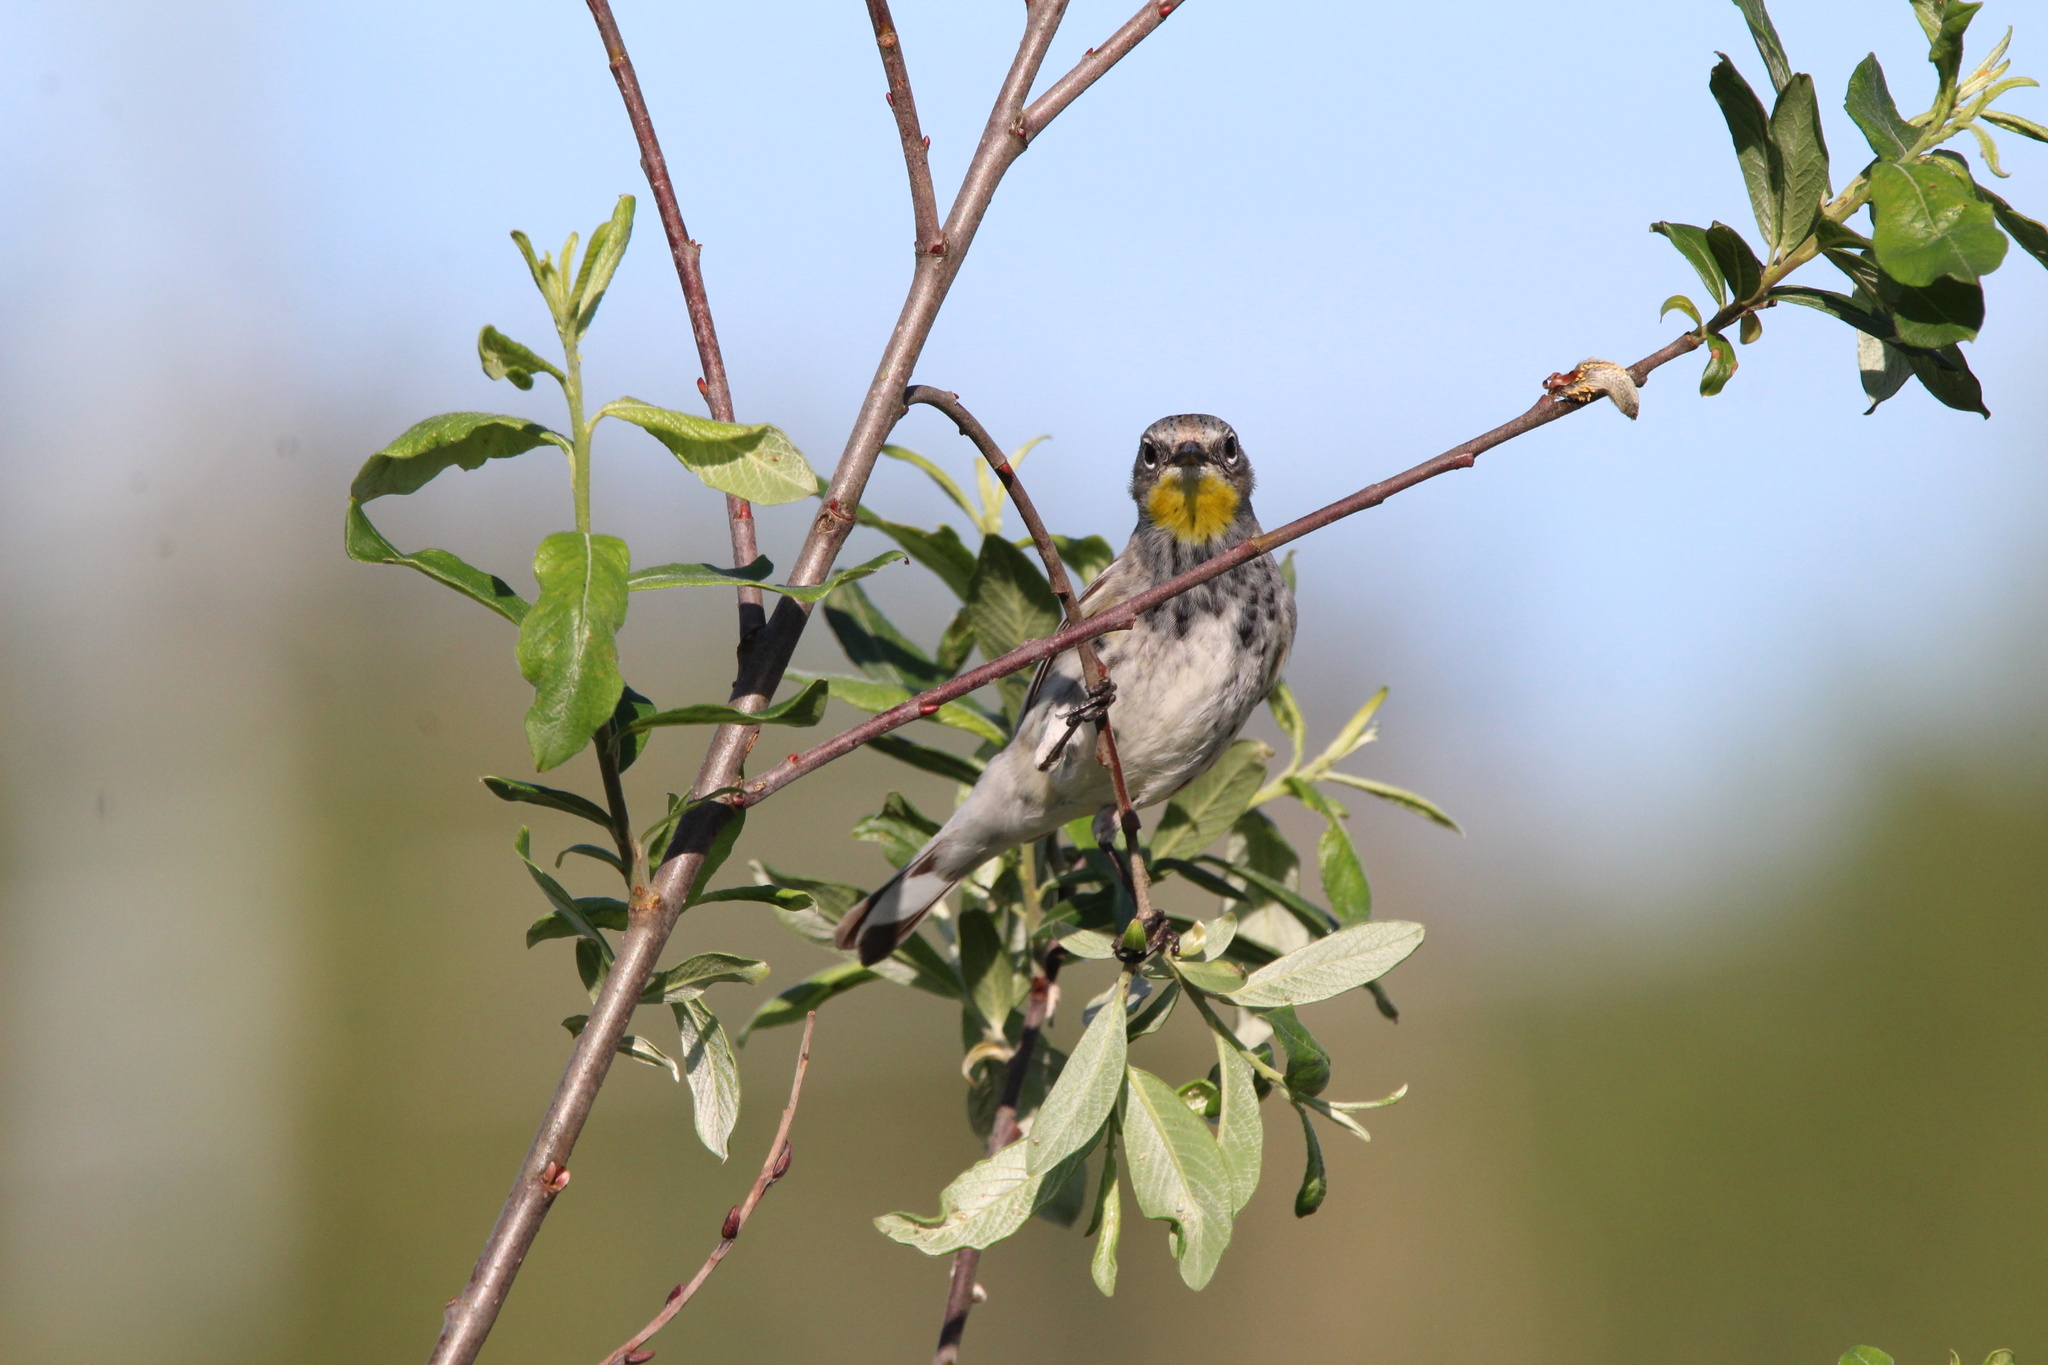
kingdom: Animalia
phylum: Chordata
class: Aves
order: Passeriformes
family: Parulidae
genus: Setophaga
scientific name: Setophaga coronata
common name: Myrtle warbler
